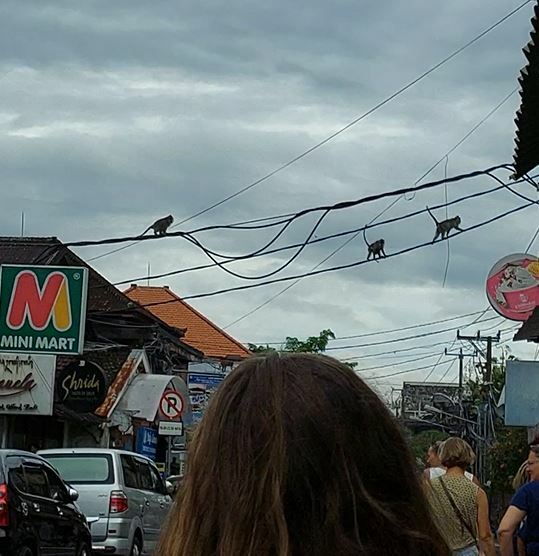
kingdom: Animalia
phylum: Chordata
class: Mammalia
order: Primates
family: Cercopithecidae
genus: Macaca
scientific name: Macaca fascicularis
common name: Crab-eating macaque
